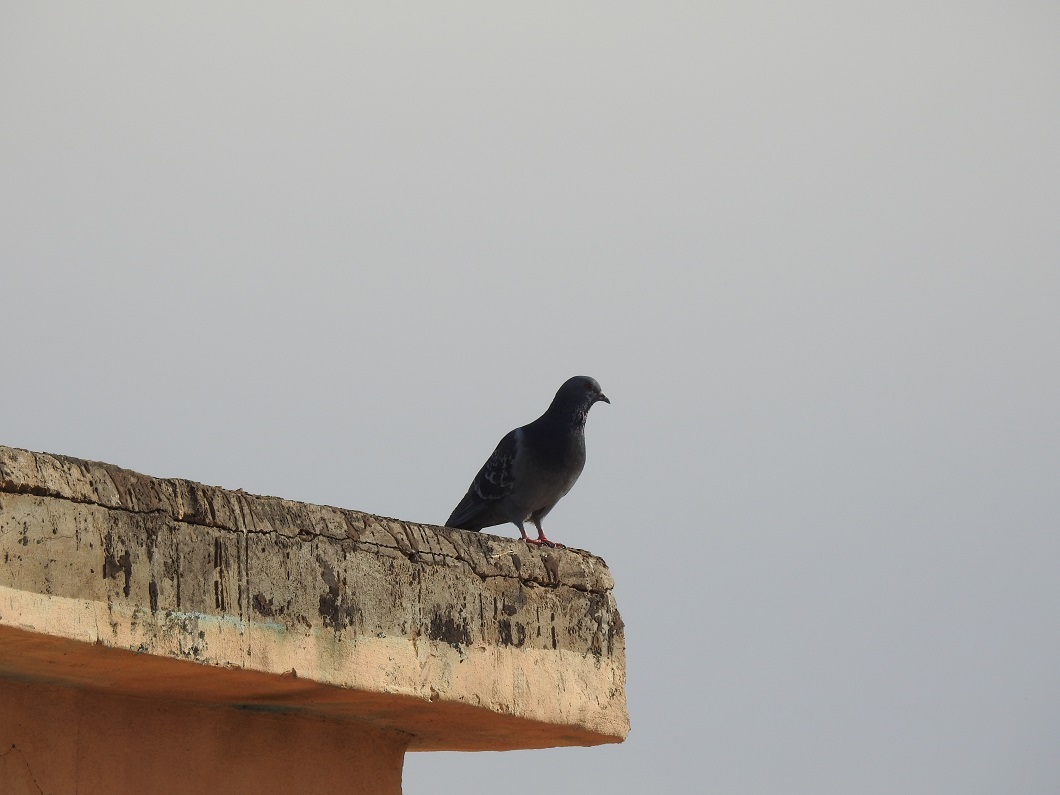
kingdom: Animalia
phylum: Chordata
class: Aves
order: Columbiformes
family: Columbidae
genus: Columba
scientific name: Columba livia
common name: Rock pigeon
